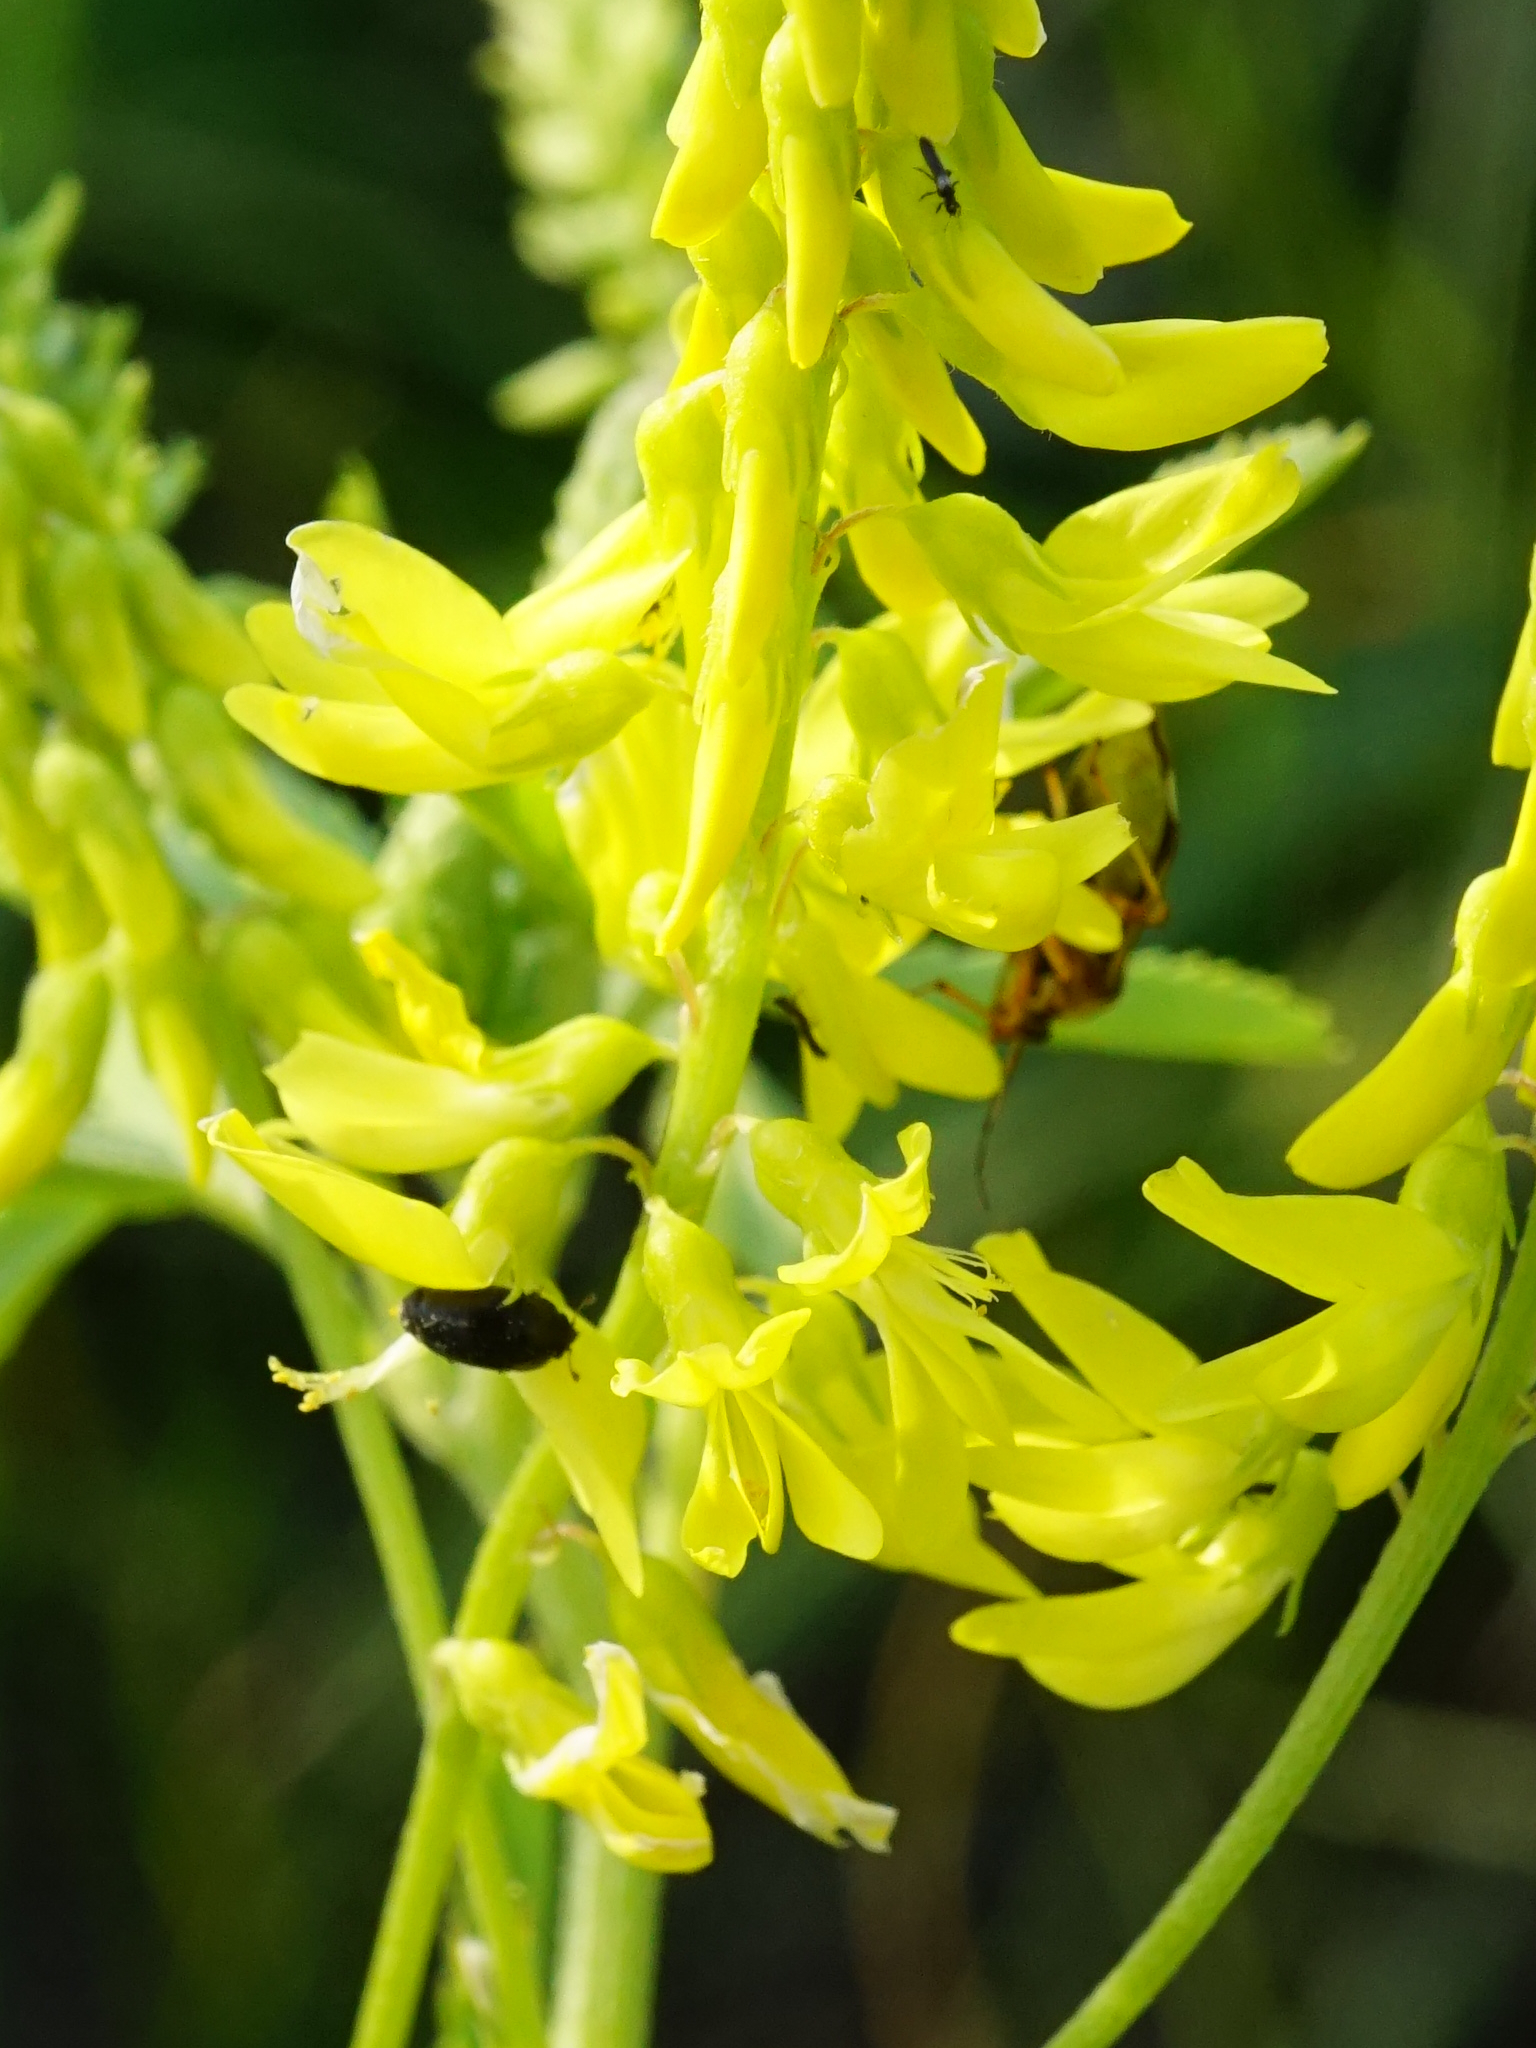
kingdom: Plantae
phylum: Tracheophyta
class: Magnoliopsida
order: Fabales
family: Fabaceae
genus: Melilotus
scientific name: Melilotus officinalis
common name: Sweetclover
